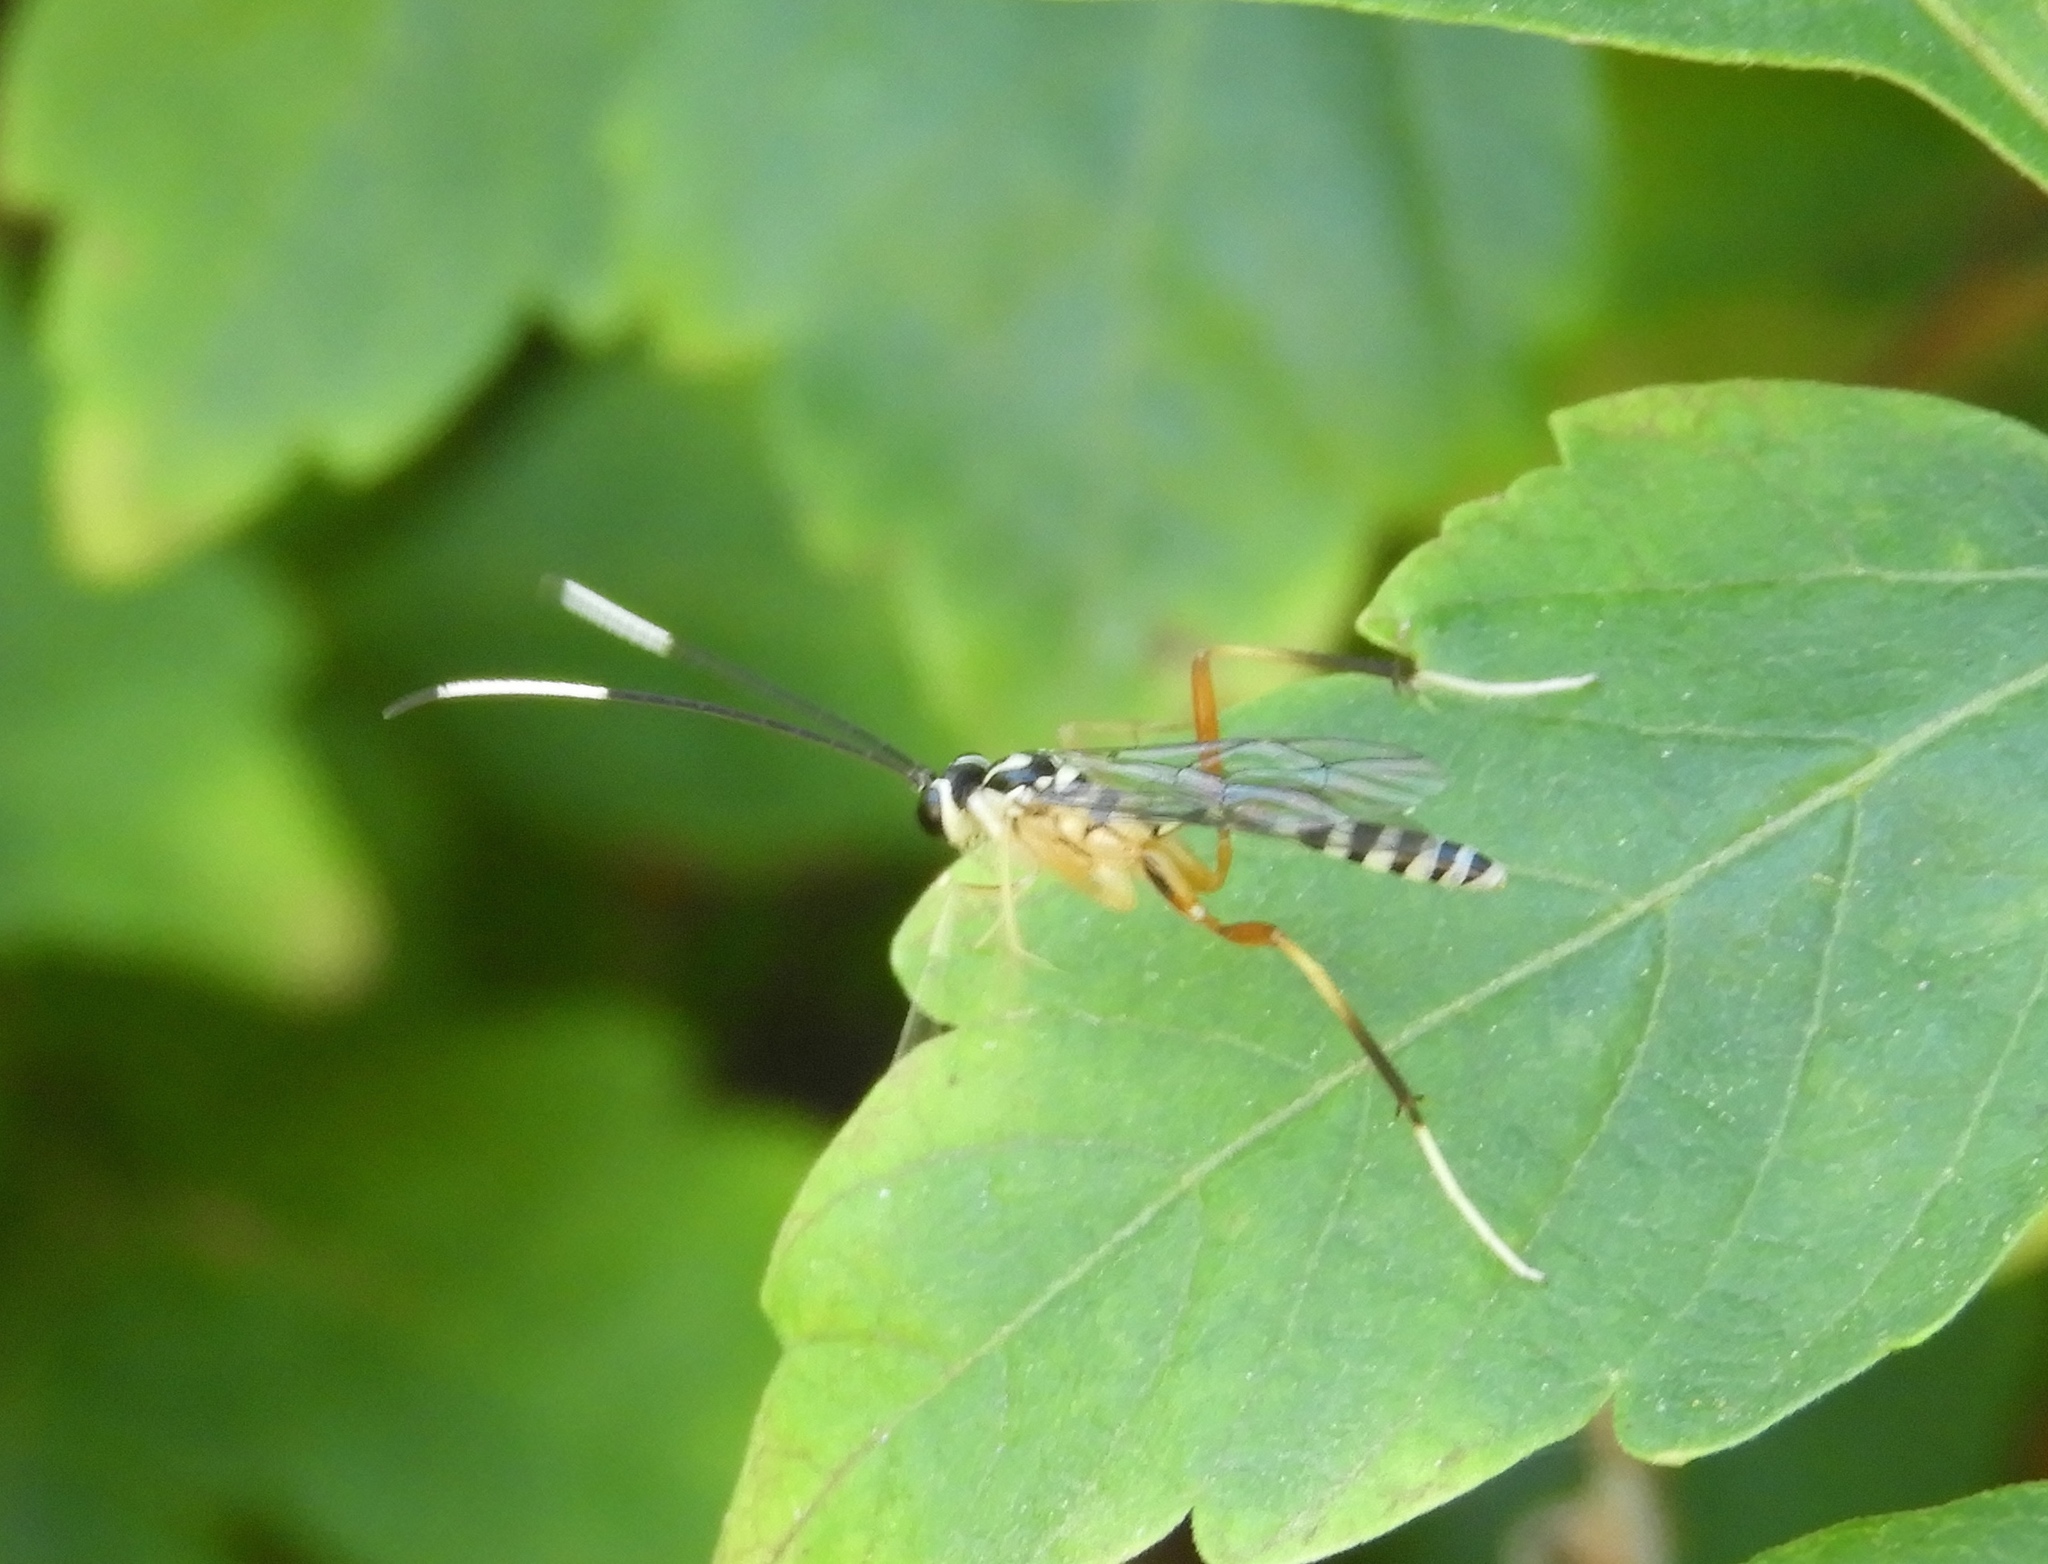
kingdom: Animalia
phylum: Arthropoda
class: Insecta
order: Hymenoptera
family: Ichneumonidae
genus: Messatoporus
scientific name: Messatoporus
